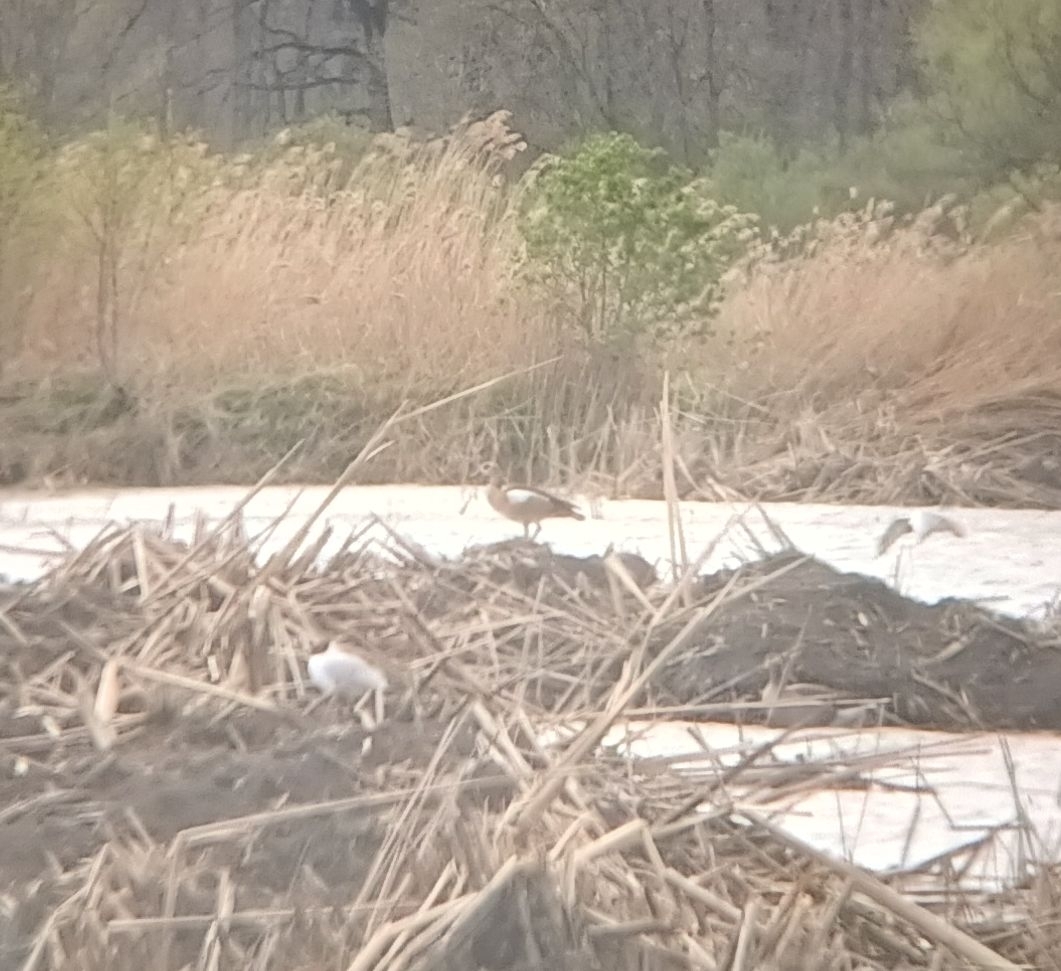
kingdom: Animalia
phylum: Chordata
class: Aves
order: Anseriformes
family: Anatidae
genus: Alopochen
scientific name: Alopochen aegyptiaca
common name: Egyptian goose
